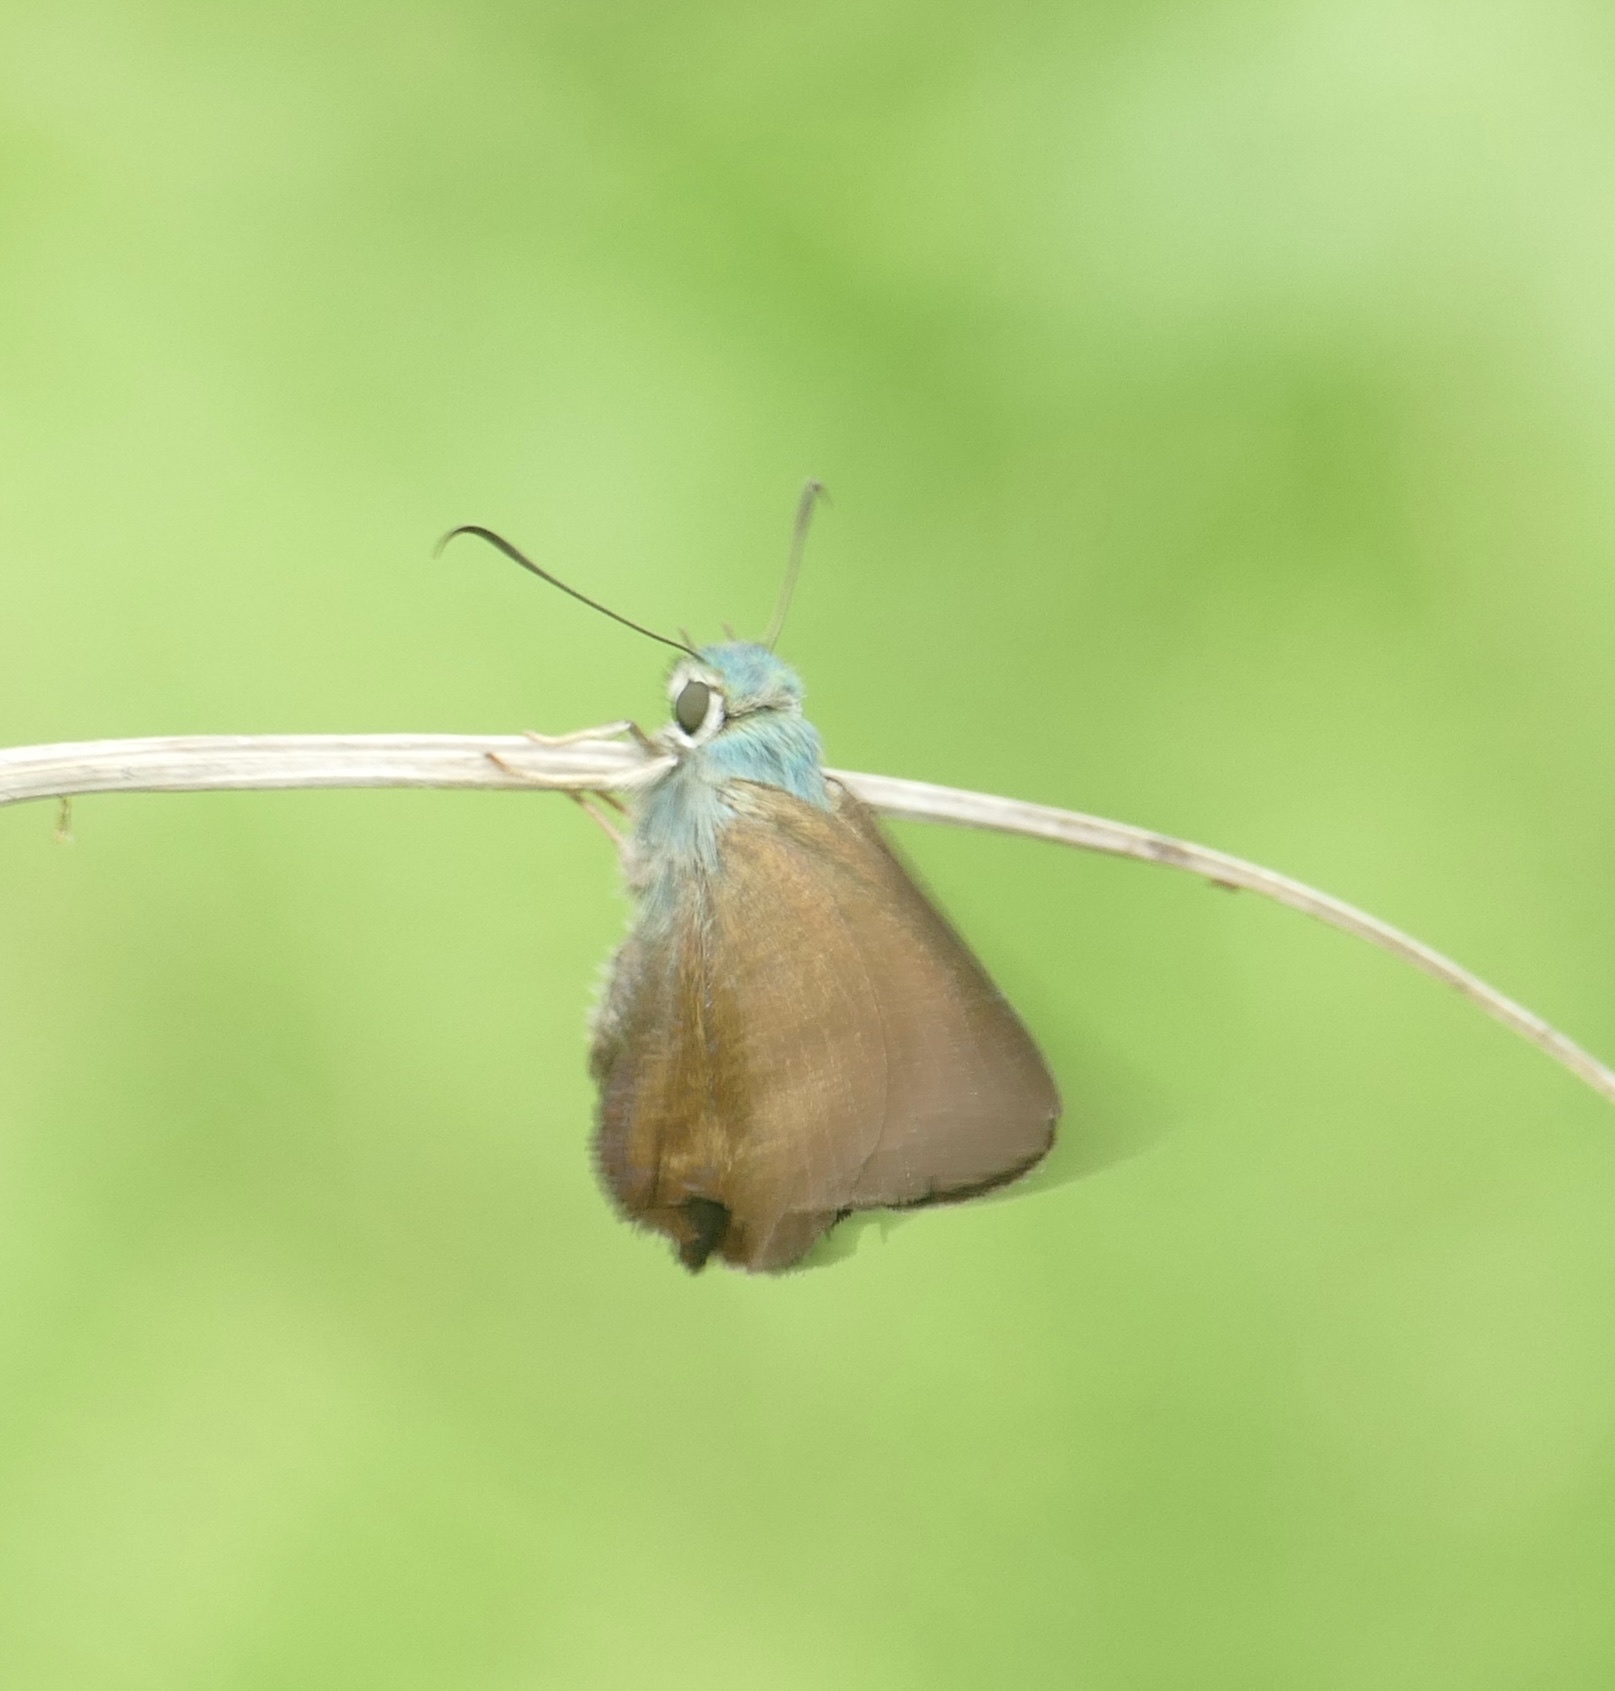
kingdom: Animalia
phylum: Arthropoda
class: Insecta
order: Lepidoptera
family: Hesperiidae
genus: Hasora
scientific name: Hasora umbrina
